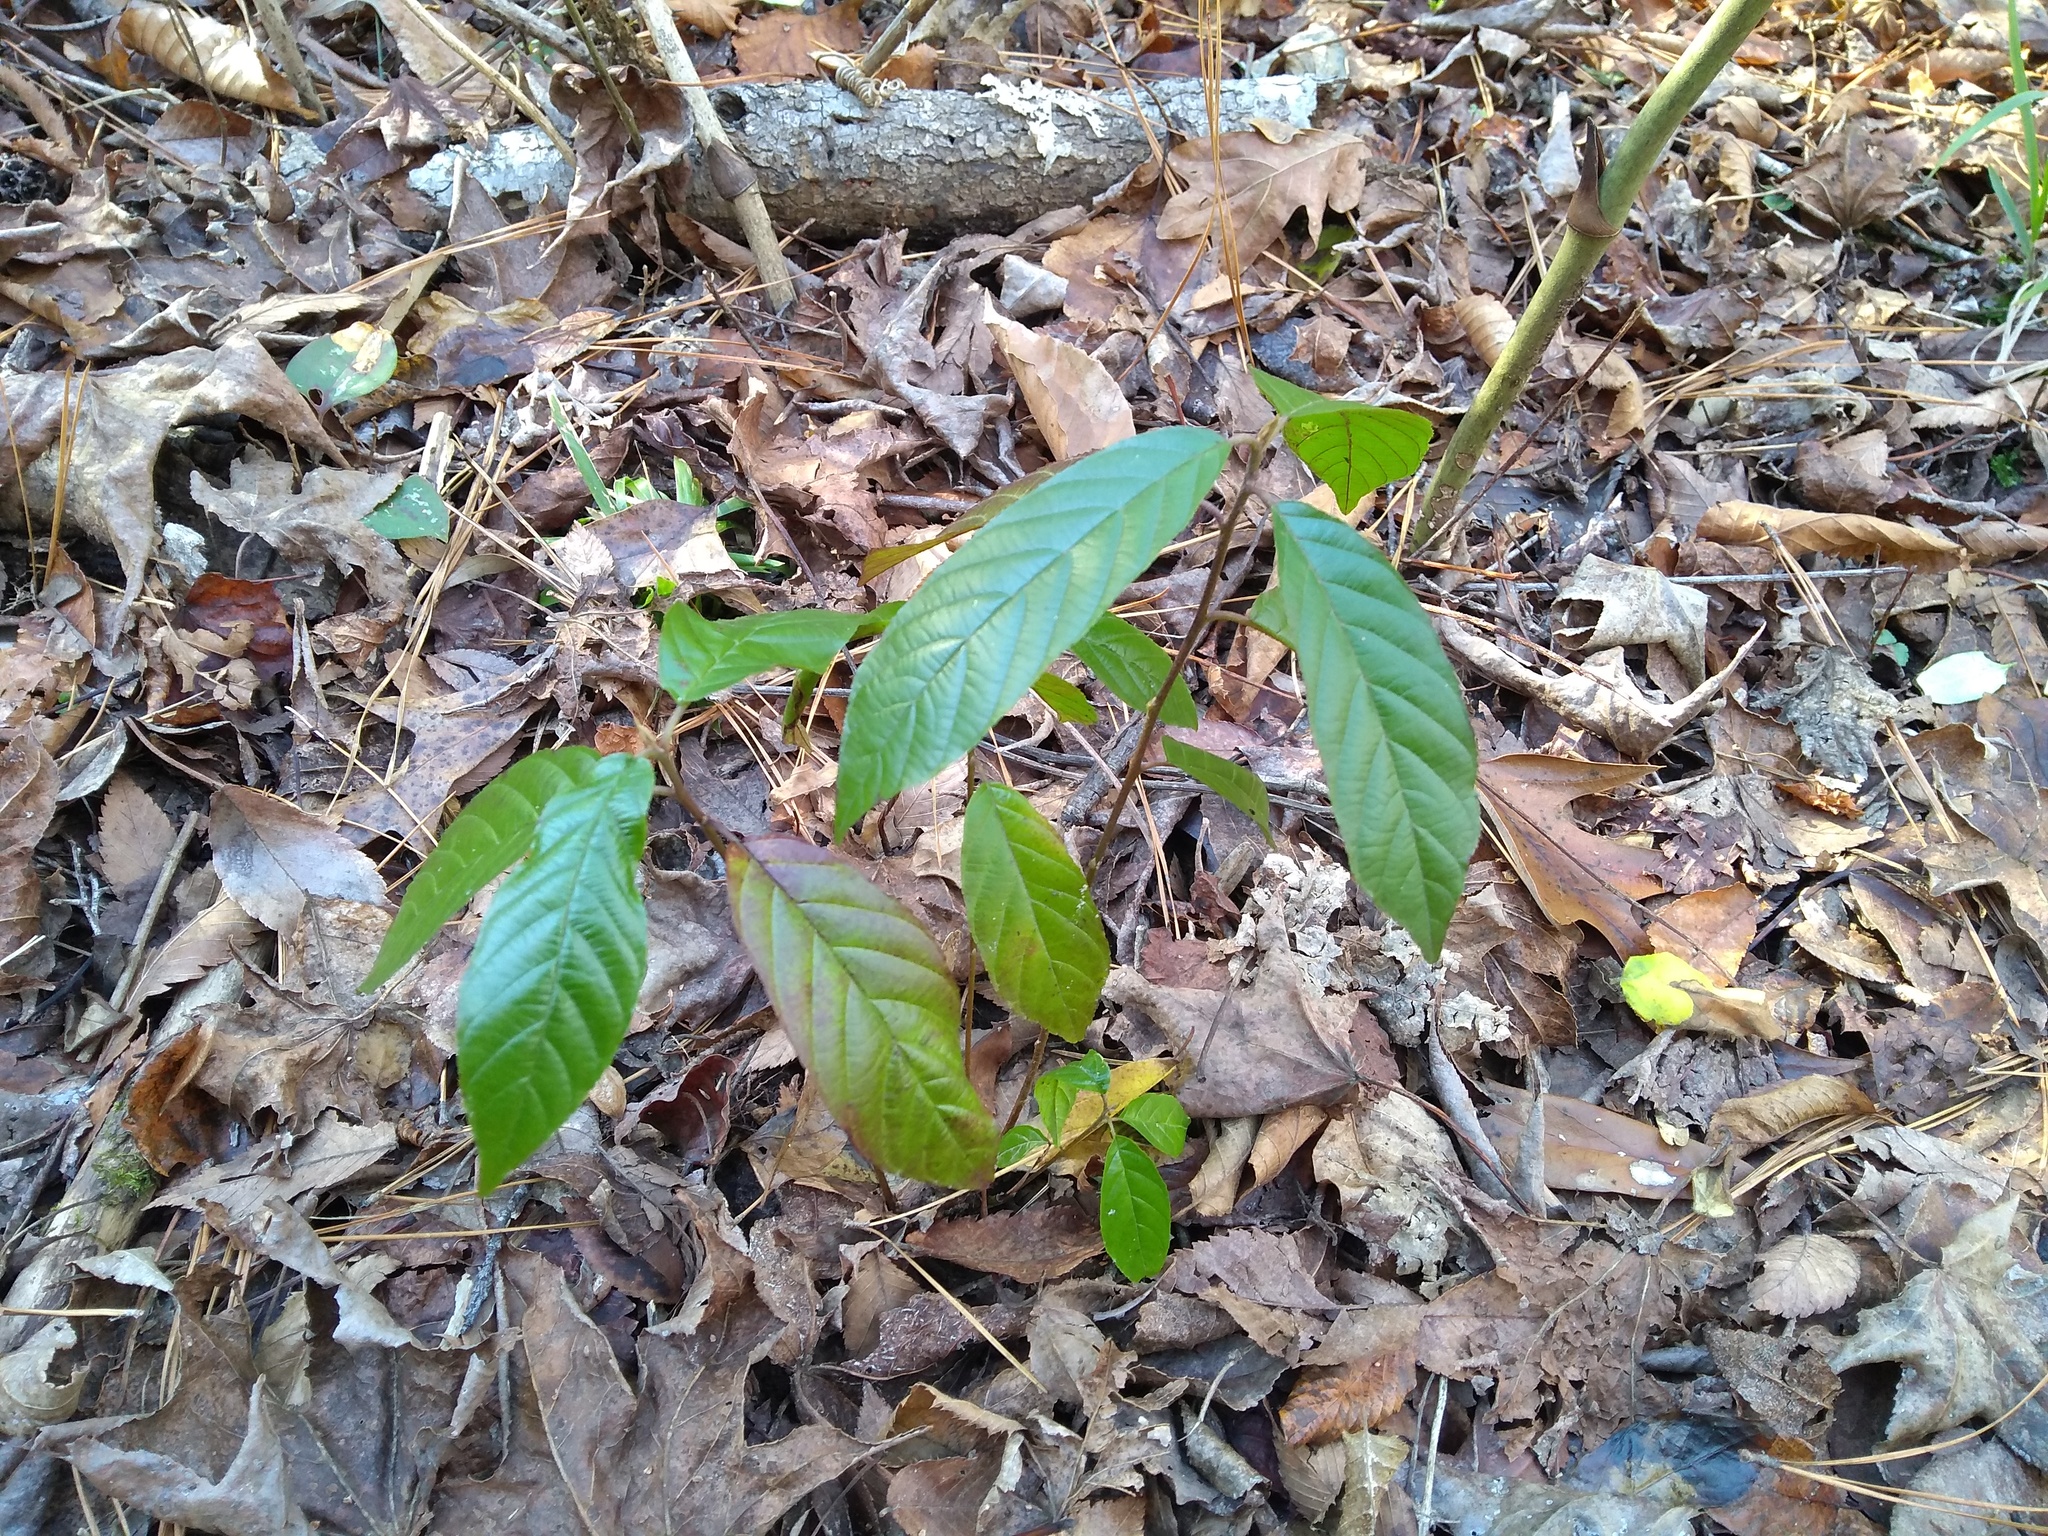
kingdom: Plantae
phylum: Tracheophyta
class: Magnoliopsida
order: Rosales
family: Rhamnaceae
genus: Frangula
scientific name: Frangula caroliniana
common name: Carolina buckthorn
